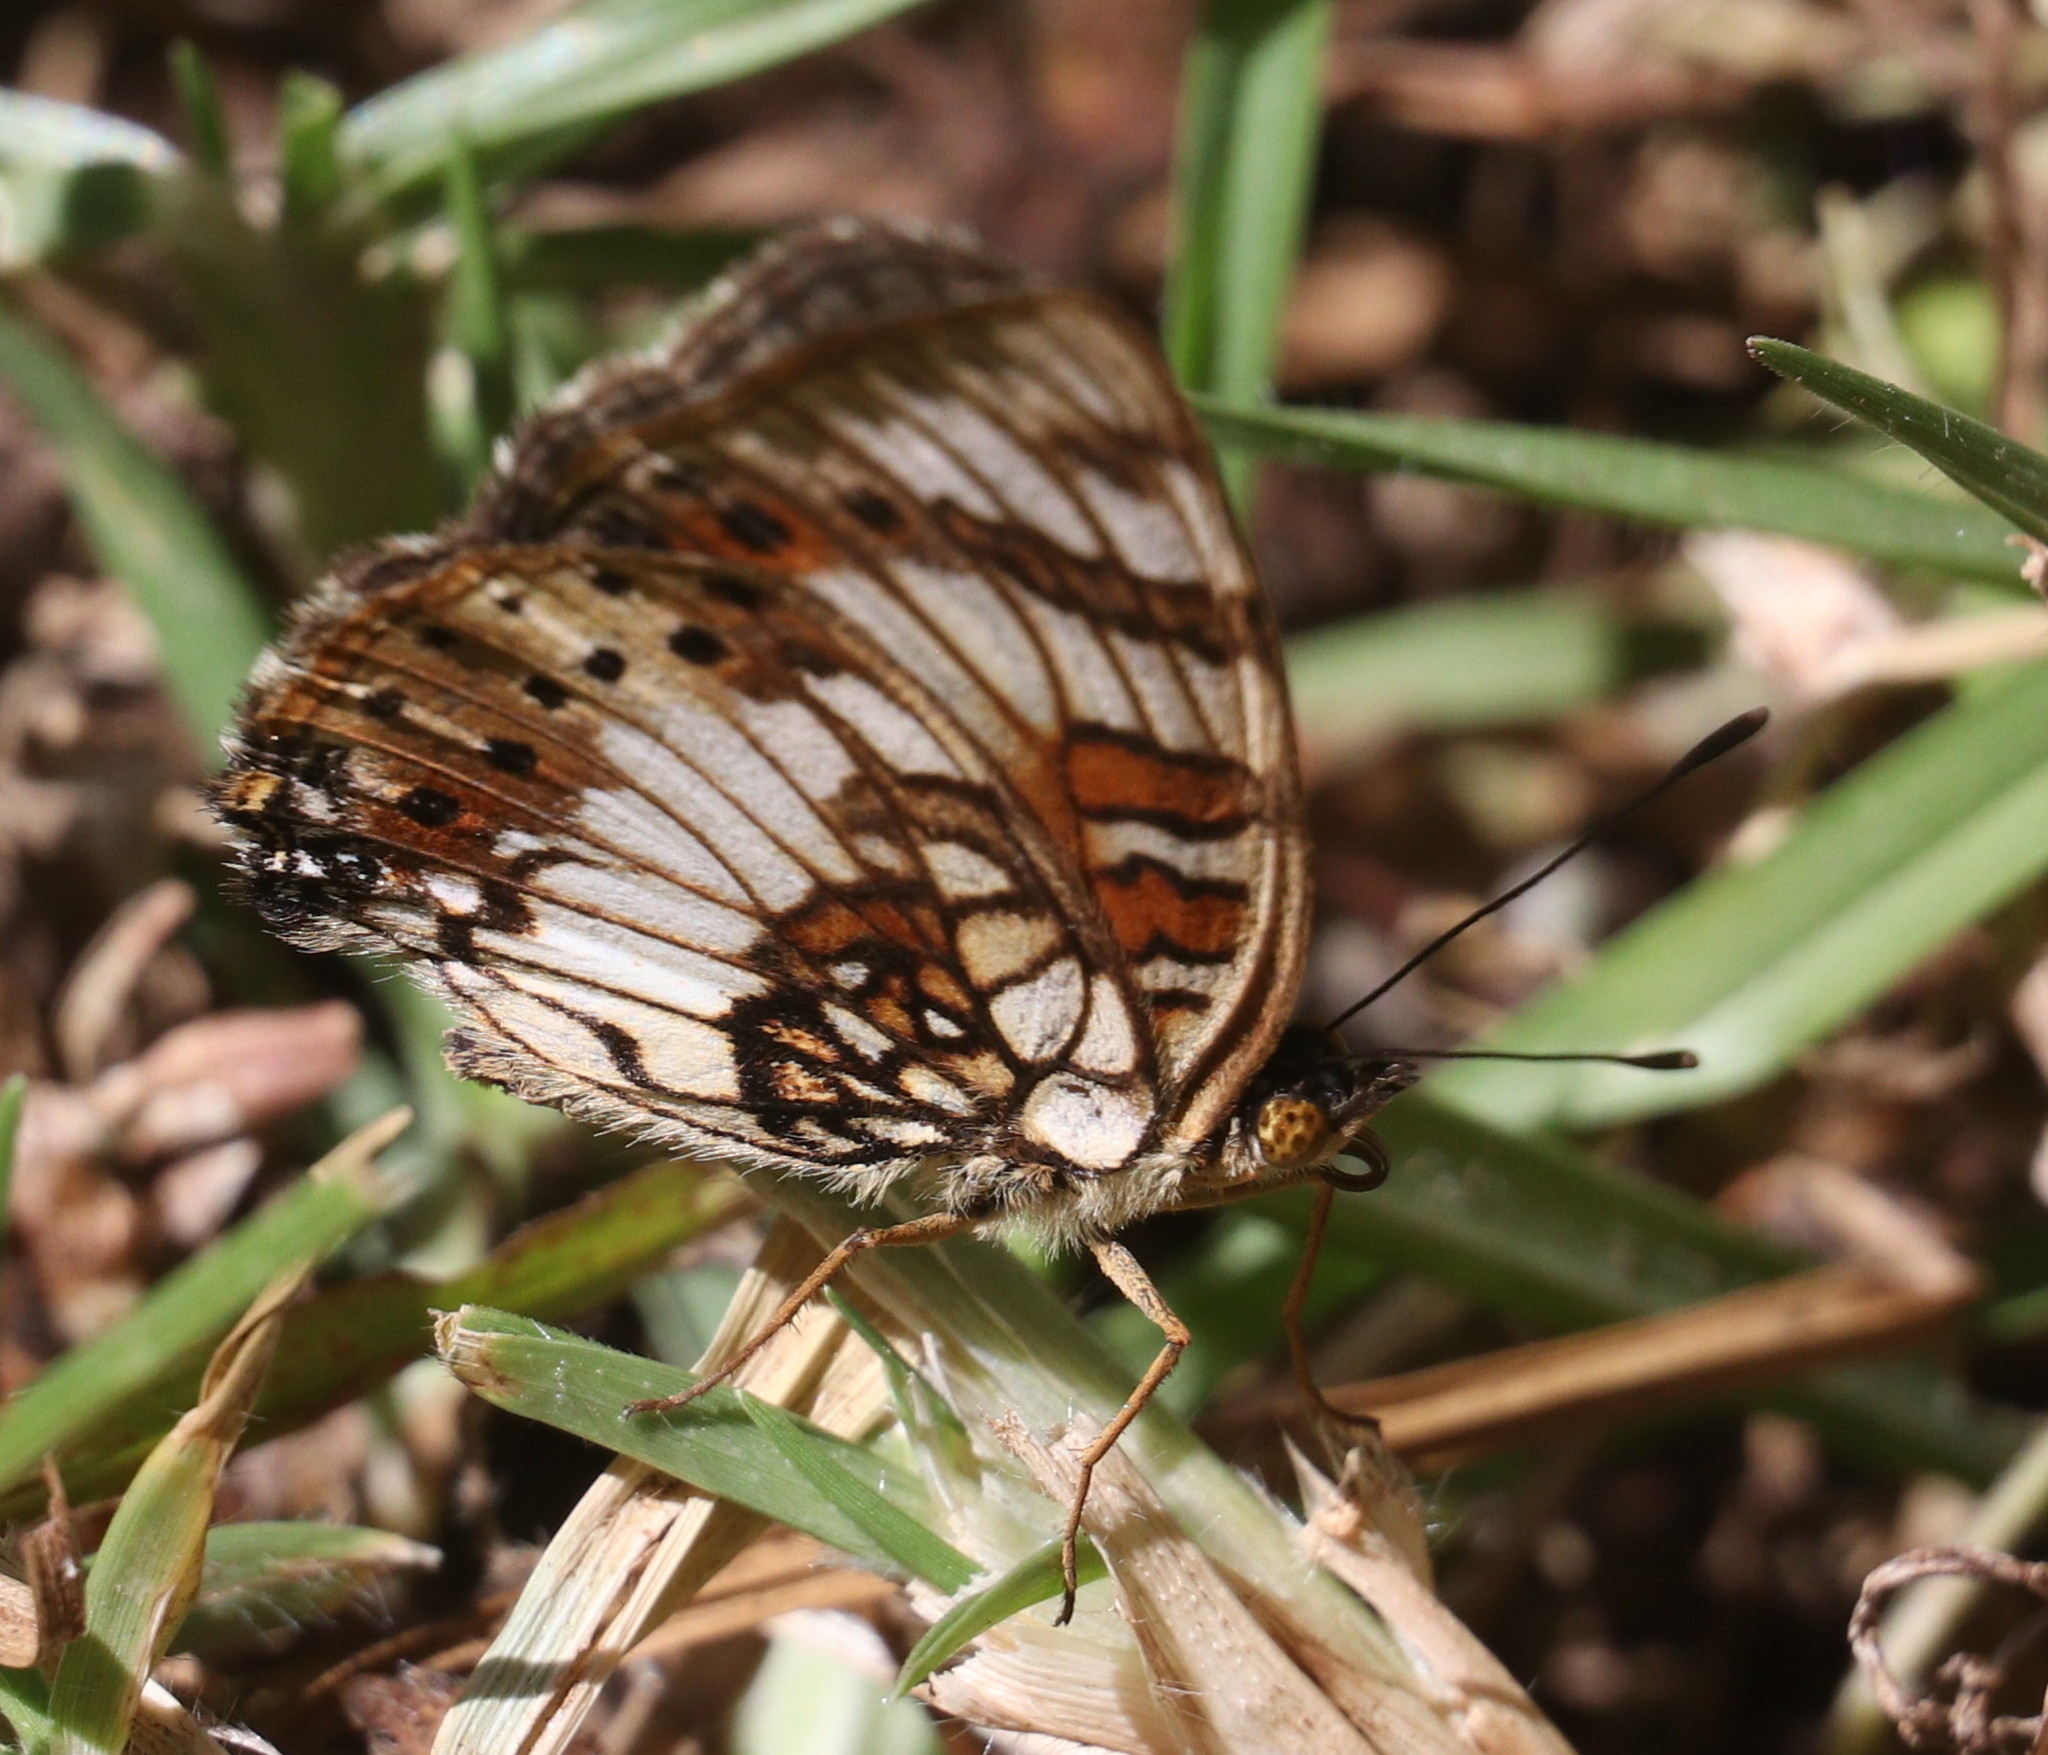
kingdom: Animalia
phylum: Arthropoda
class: Insecta
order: Lepidoptera
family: Nymphalidae
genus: Junonia
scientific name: Junonia sophia
